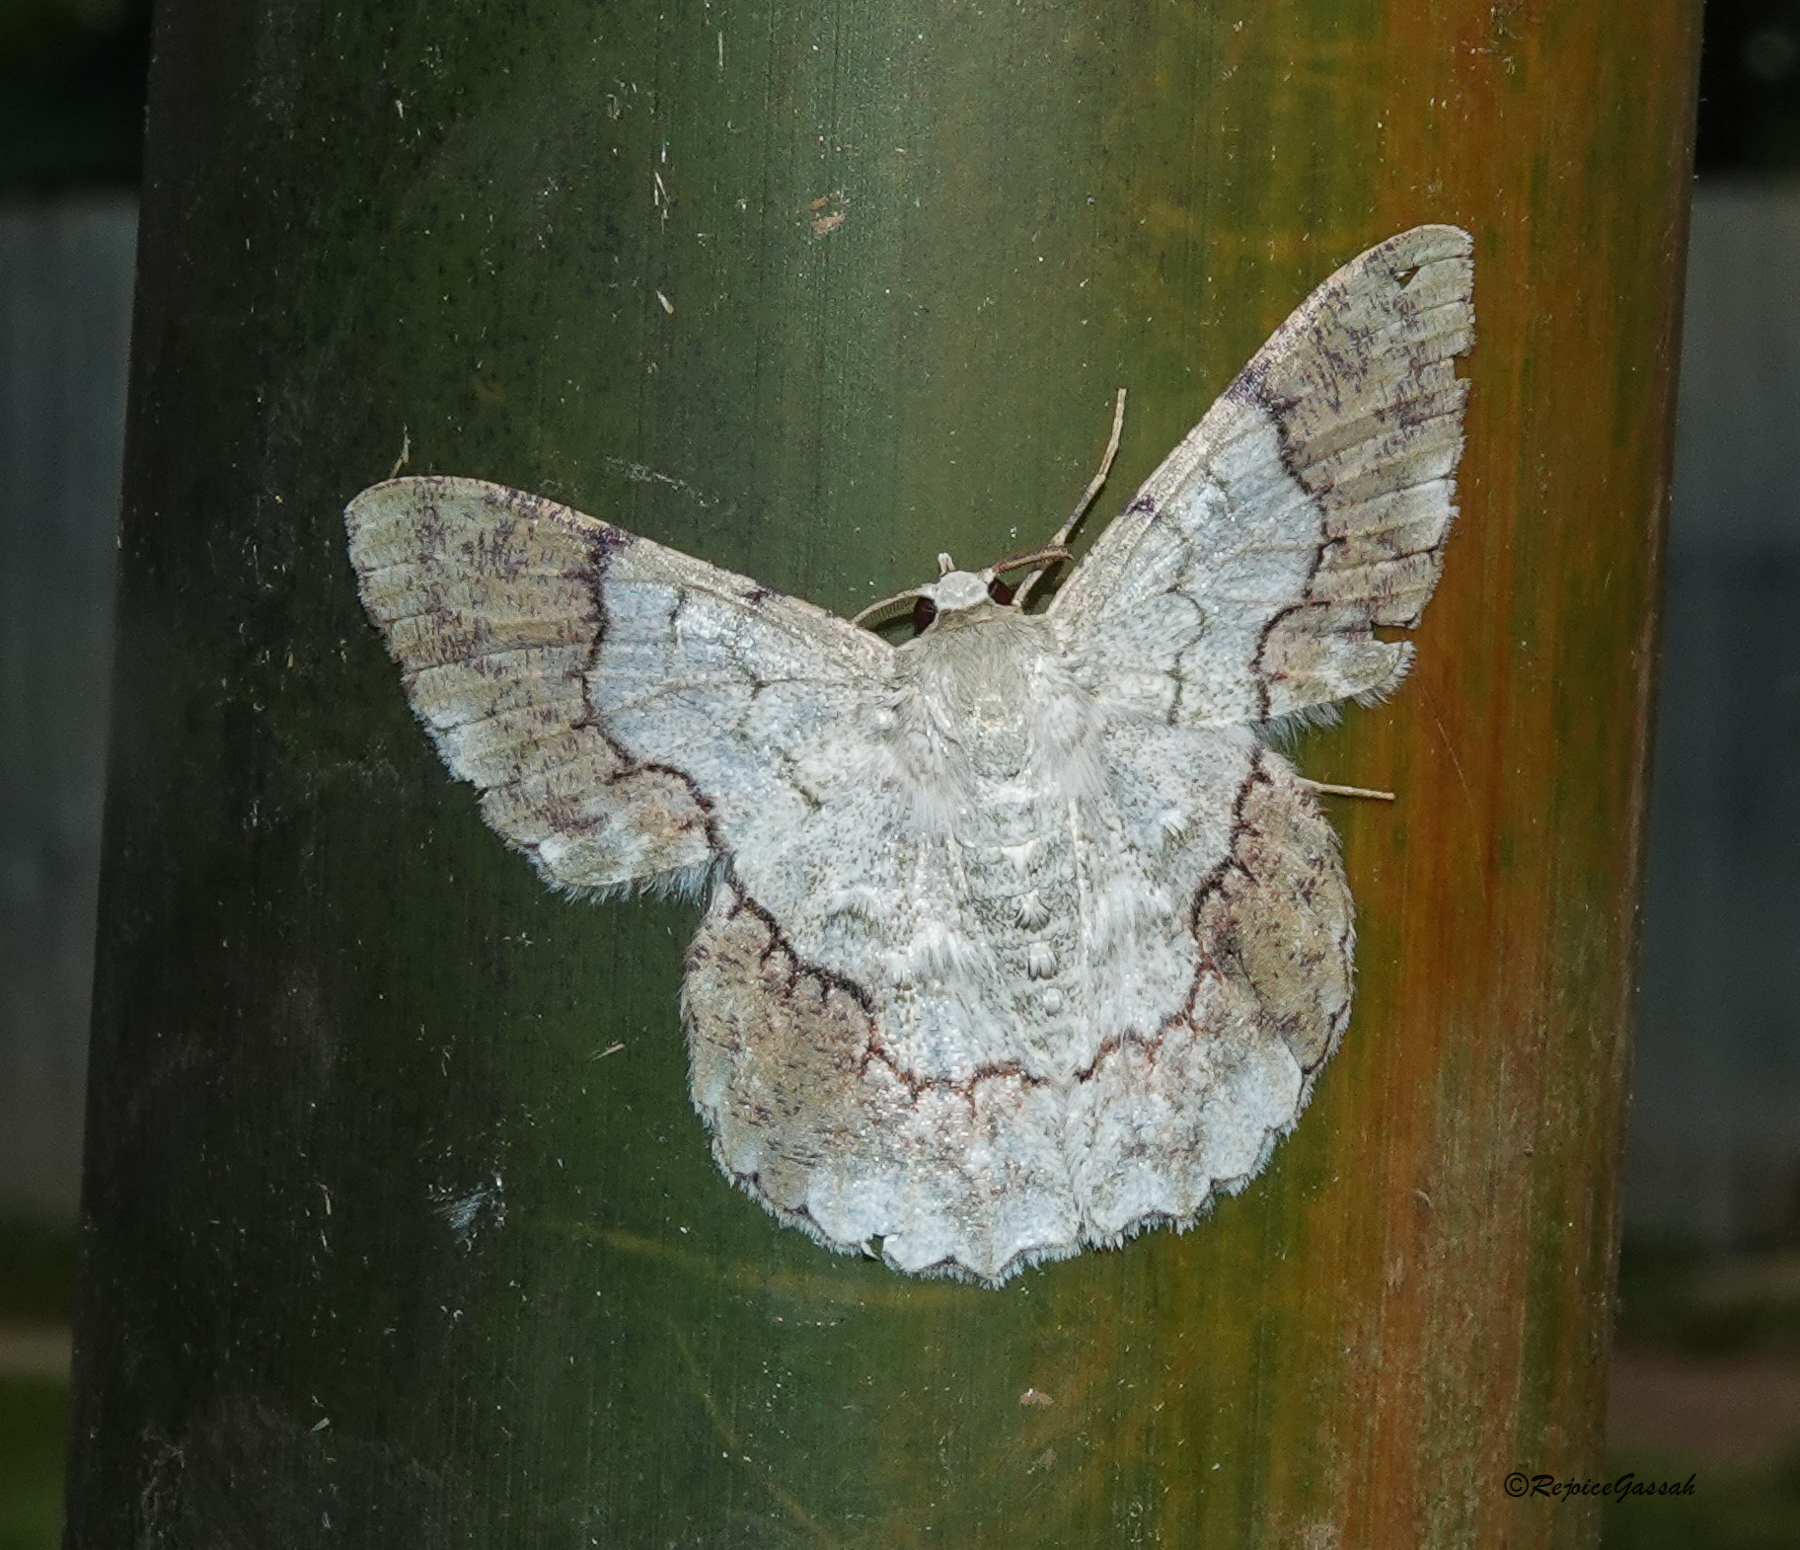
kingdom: Animalia
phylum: Arthropoda
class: Insecta
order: Lepidoptera
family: Geometridae
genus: Pingasa
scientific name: Pingasa ruginaria
